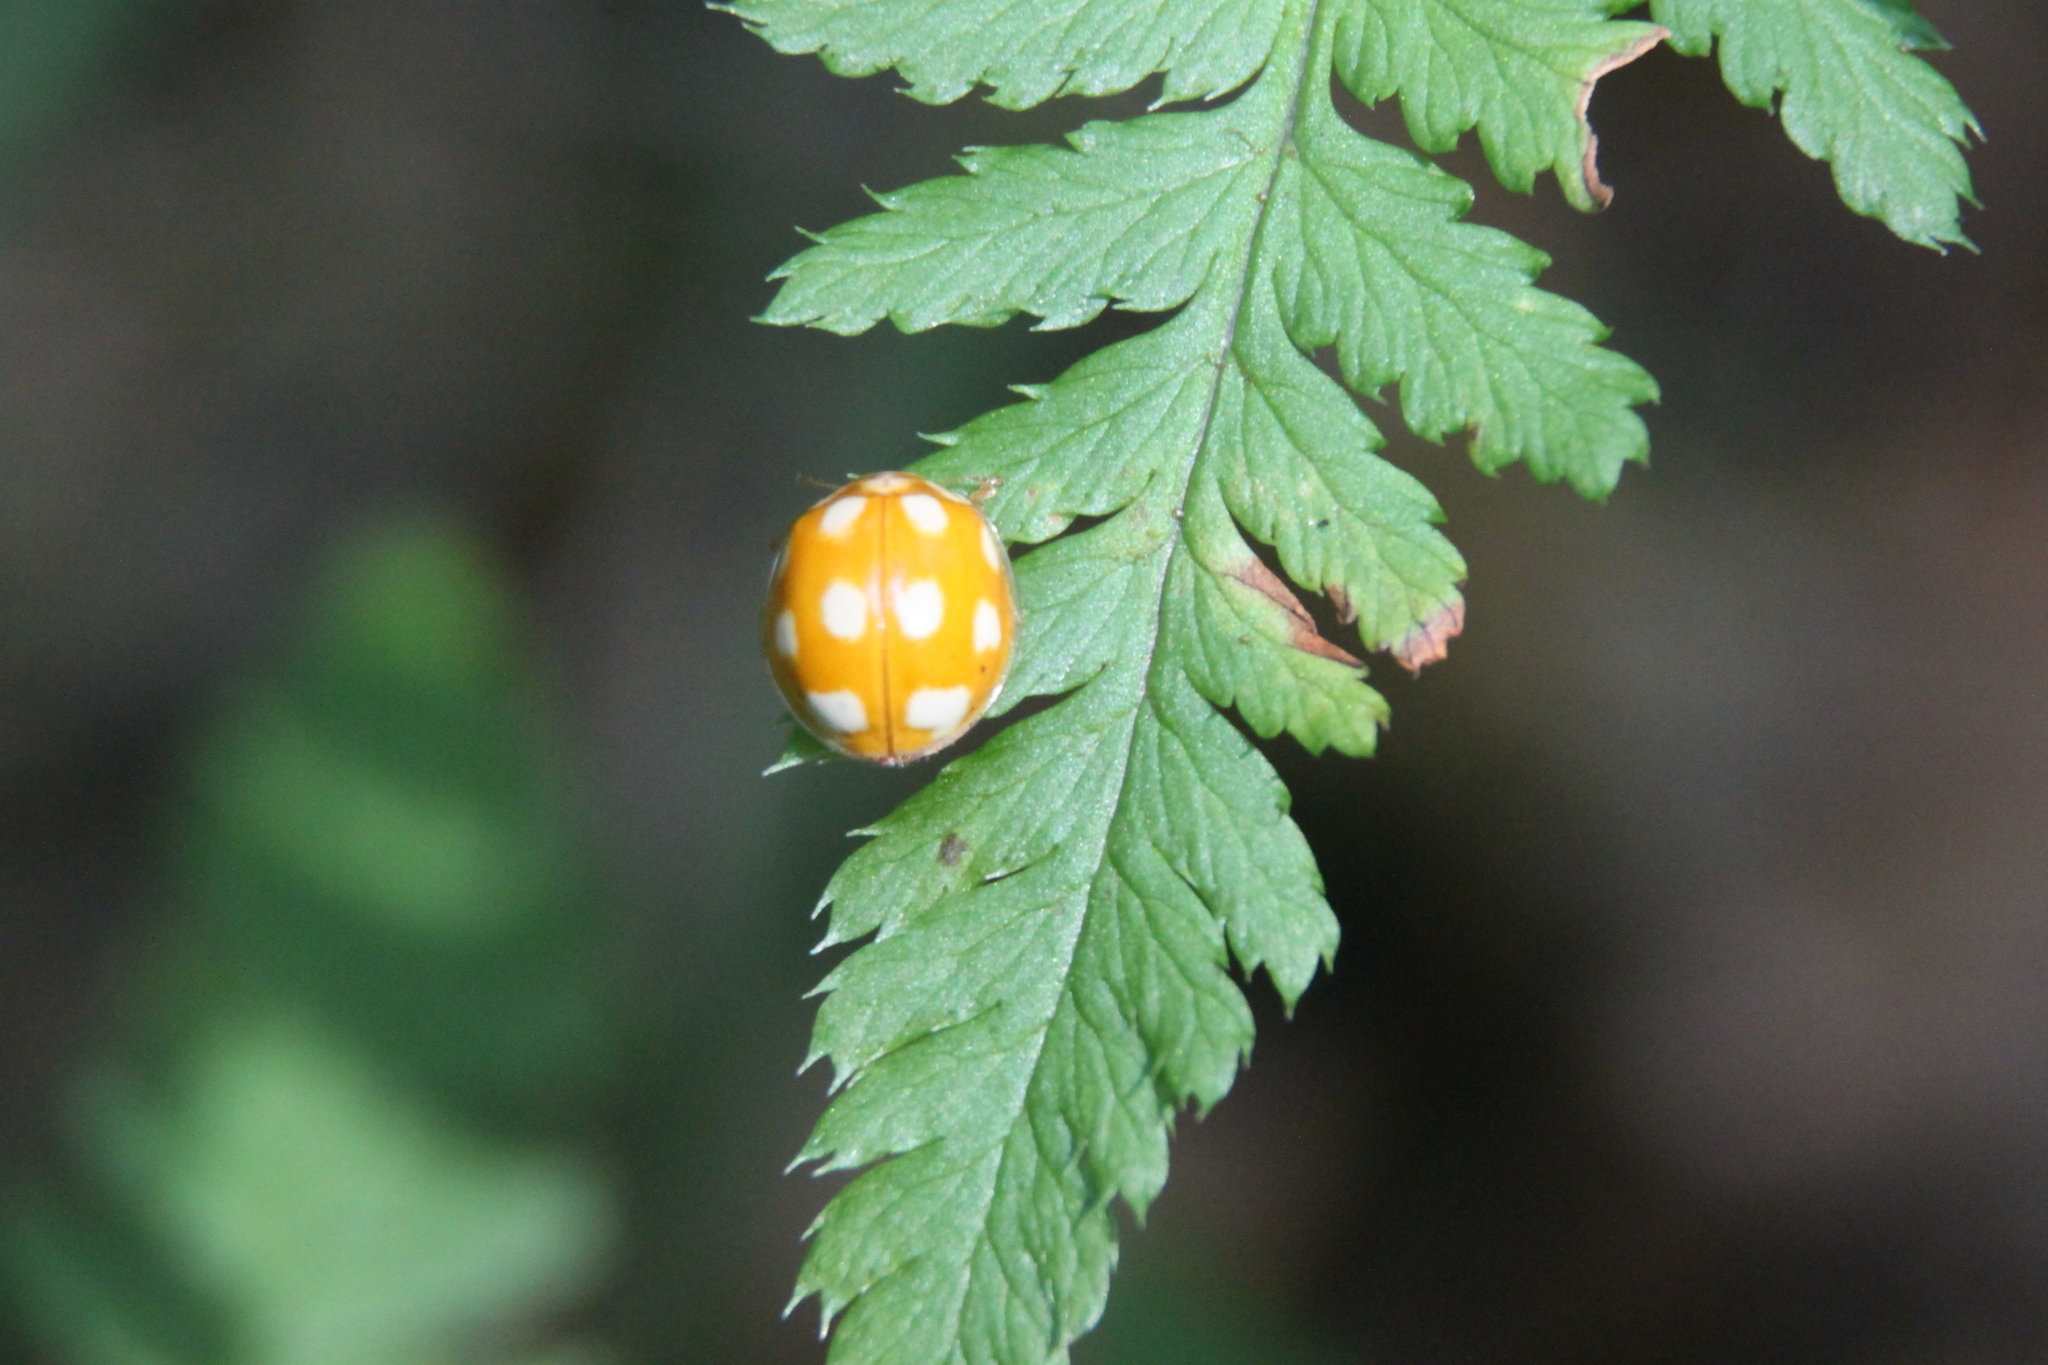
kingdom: Animalia
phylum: Arthropoda
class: Insecta
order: Coleoptera
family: Coccinellidae
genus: Calvia
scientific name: Calvia decemguttata
